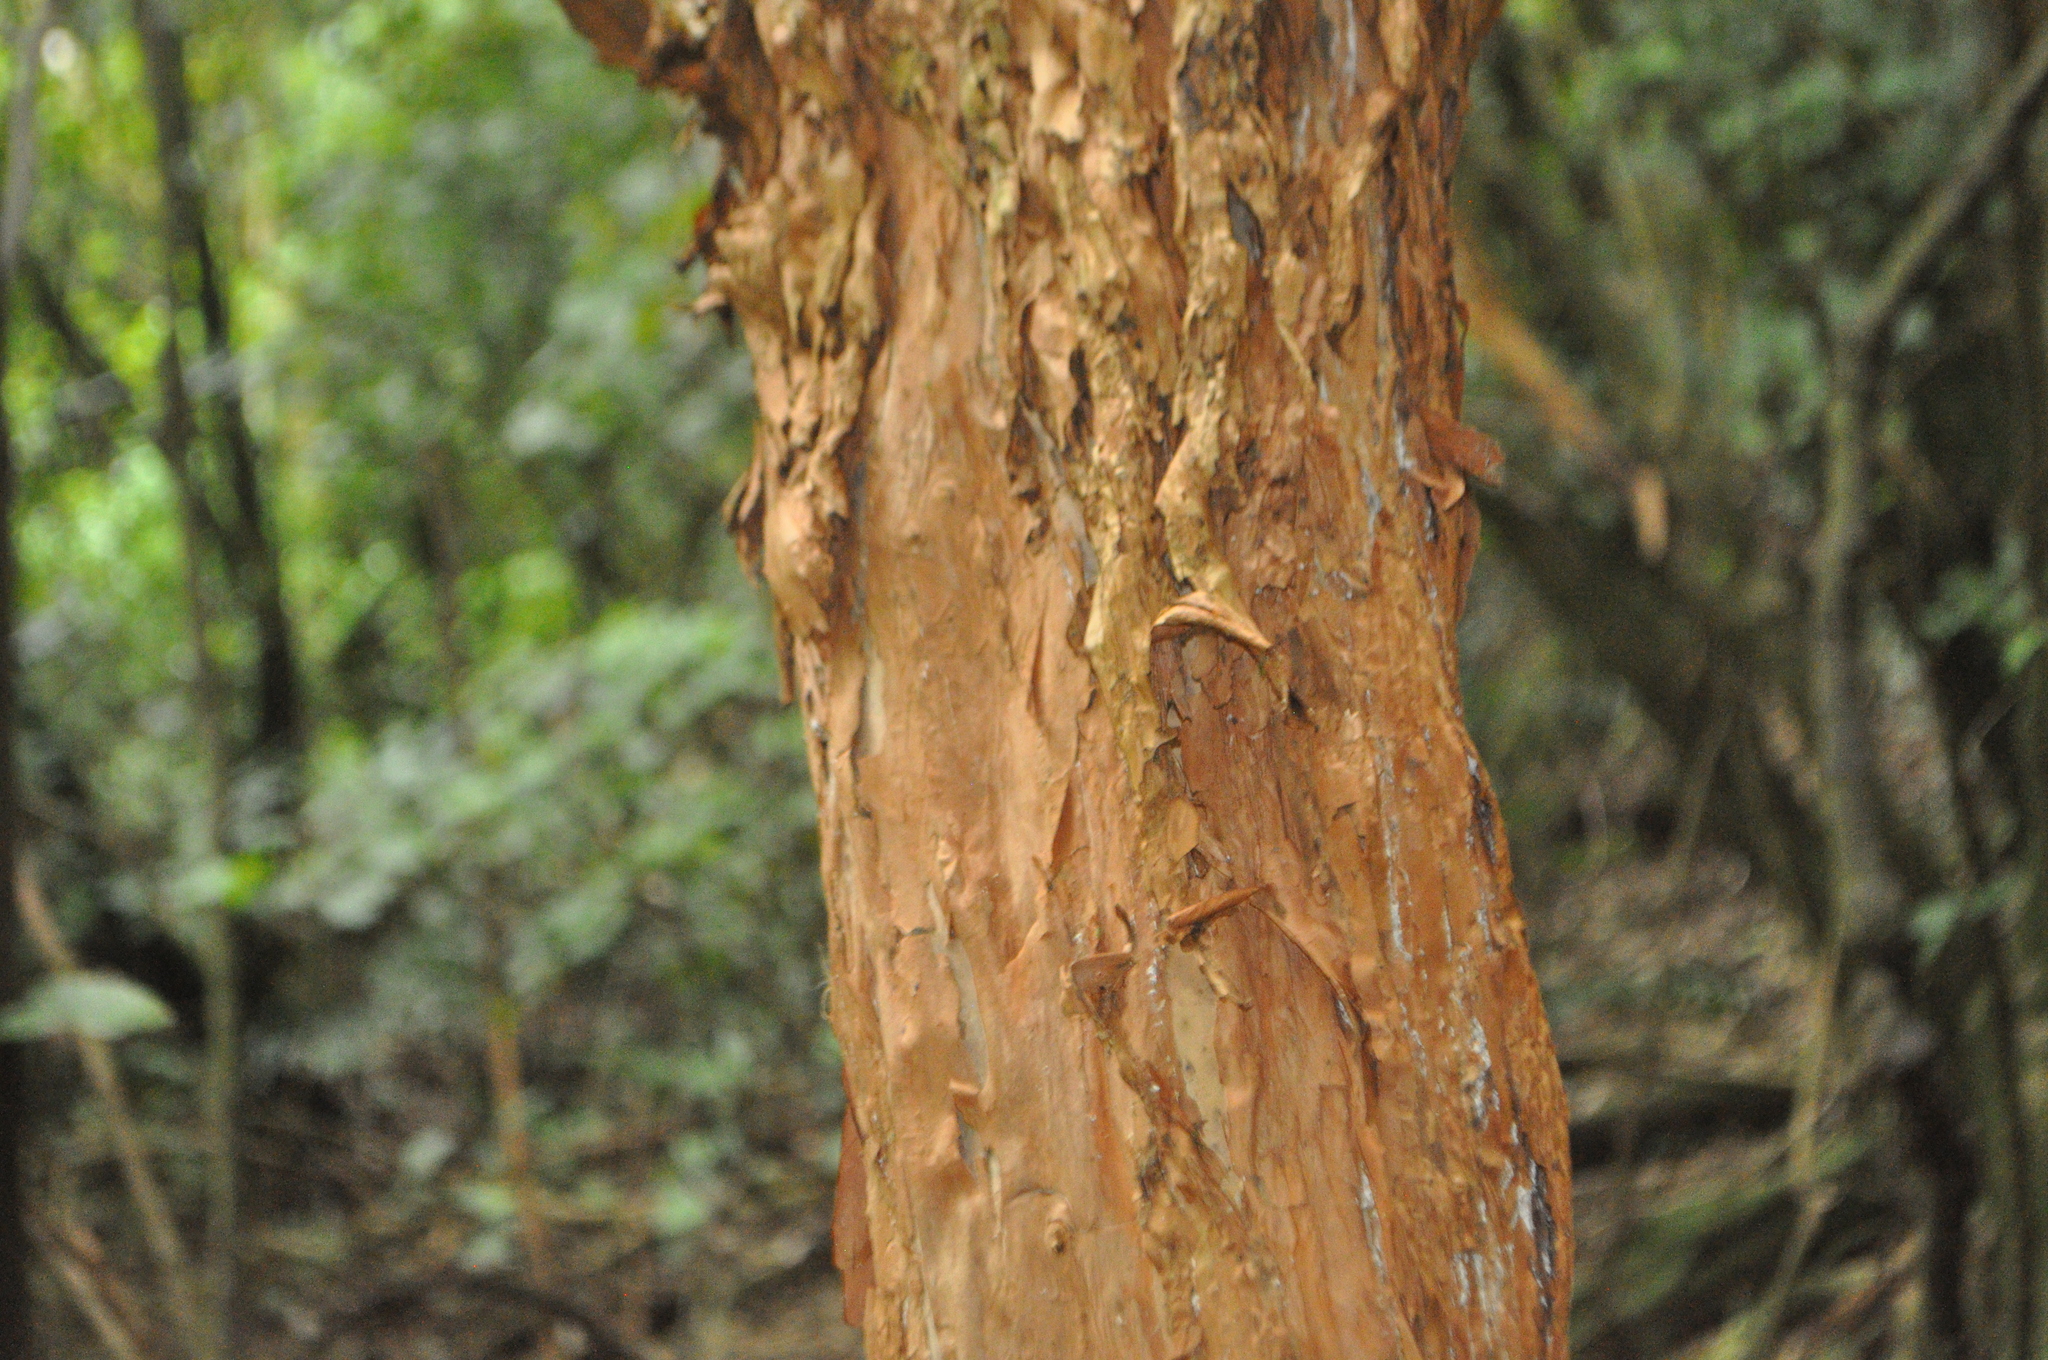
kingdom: Plantae
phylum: Tracheophyta
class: Magnoliopsida
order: Myrtales
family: Onagraceae
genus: Fuchsia
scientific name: Fuchsia excorticata
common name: Tree fuchsia
